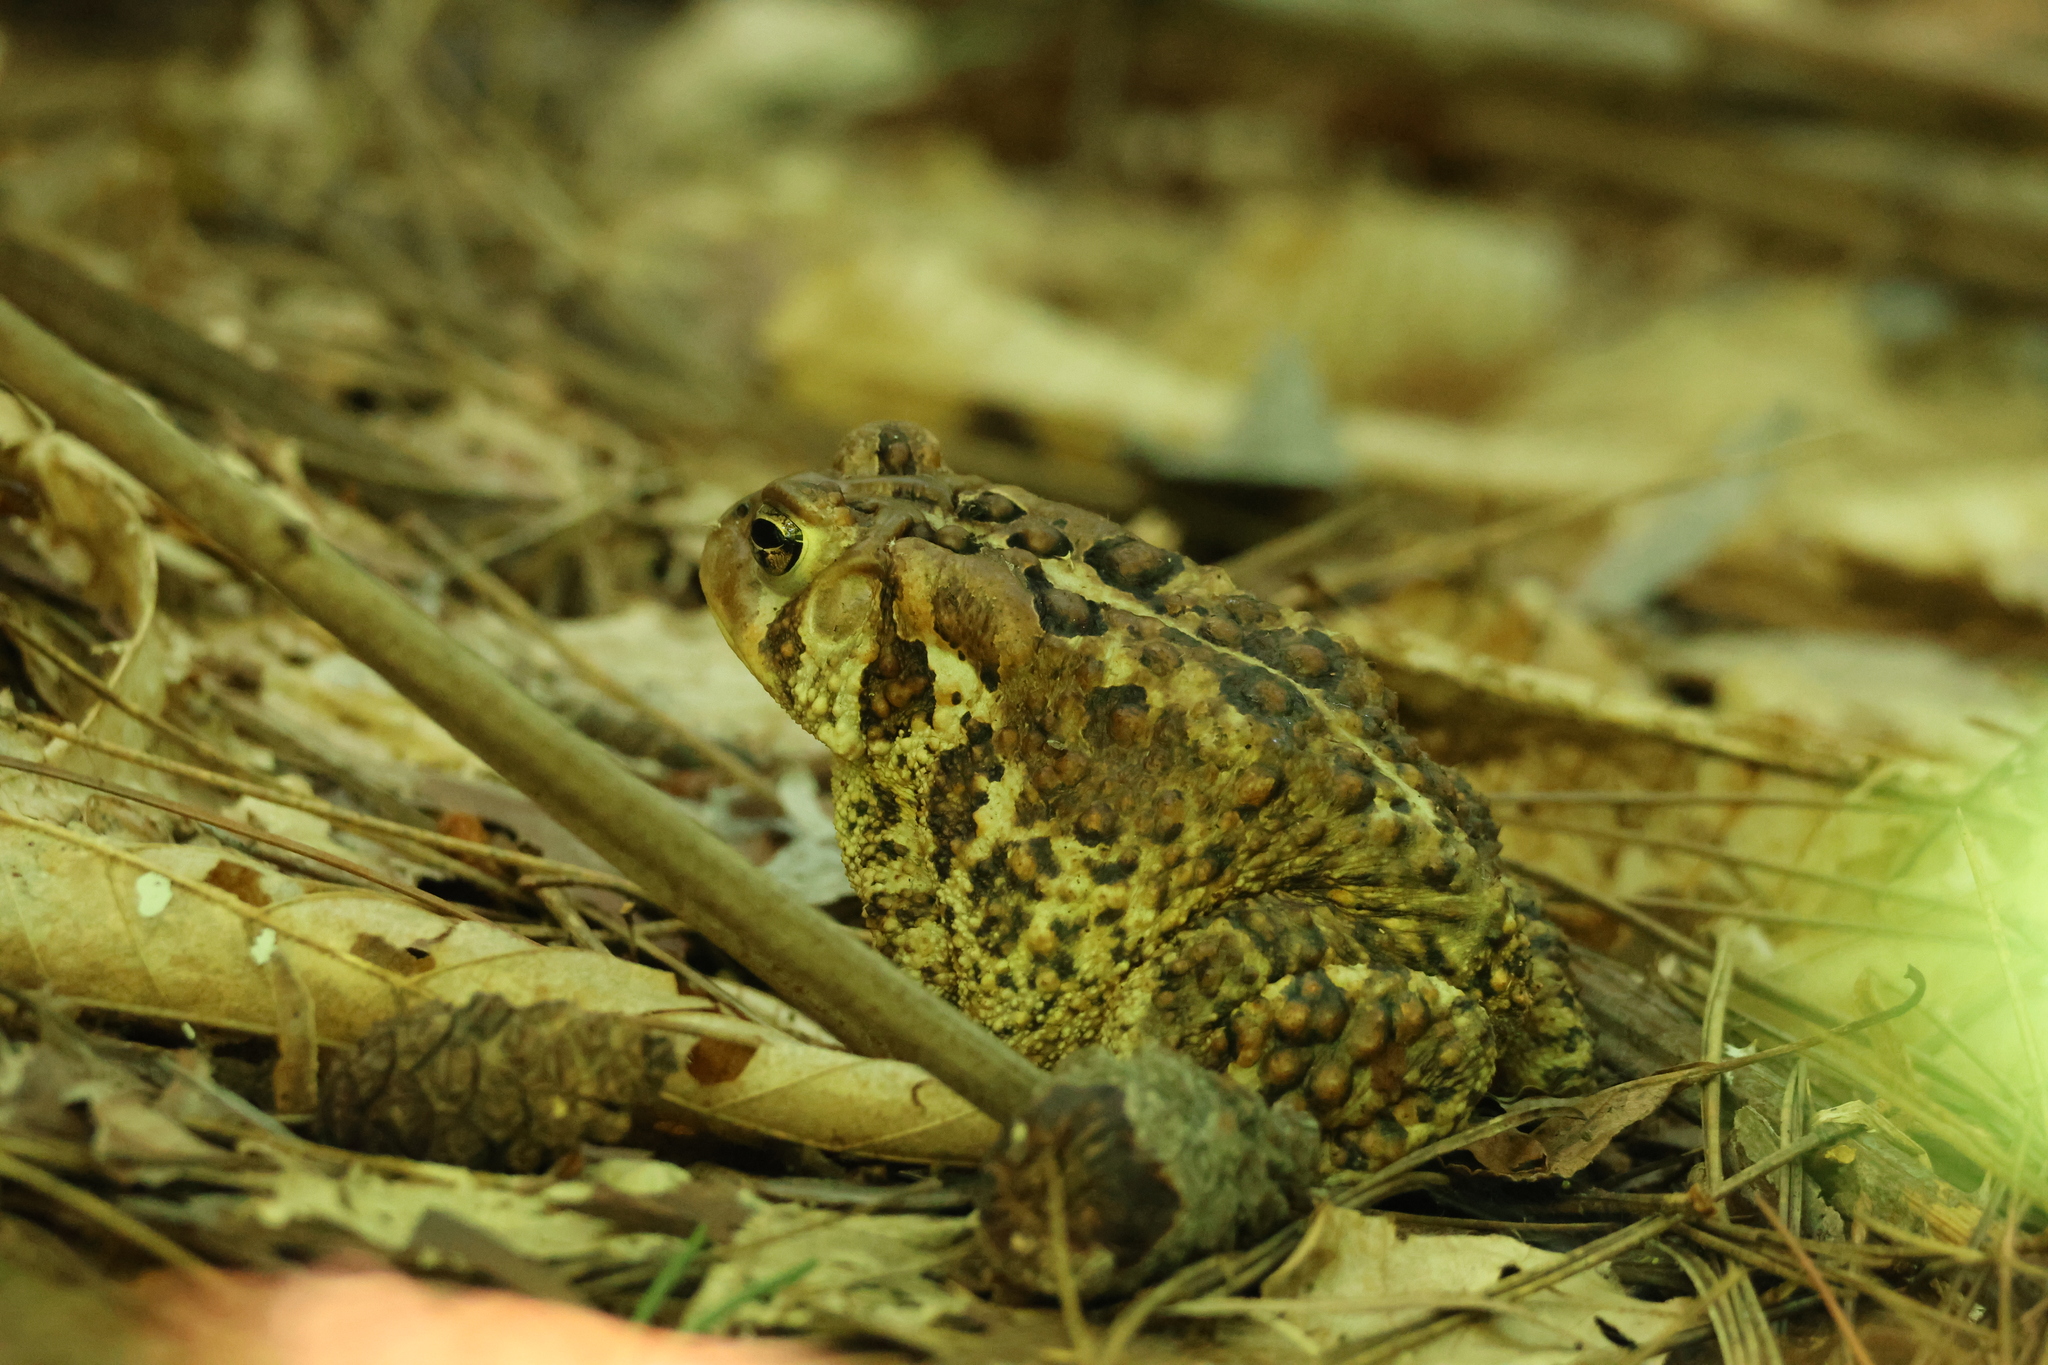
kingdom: Animalia
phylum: Chordata
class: Amphibia
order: Anura
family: Bufonidae
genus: Anaxyrus
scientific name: Anaxyrus americanus
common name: American toad
